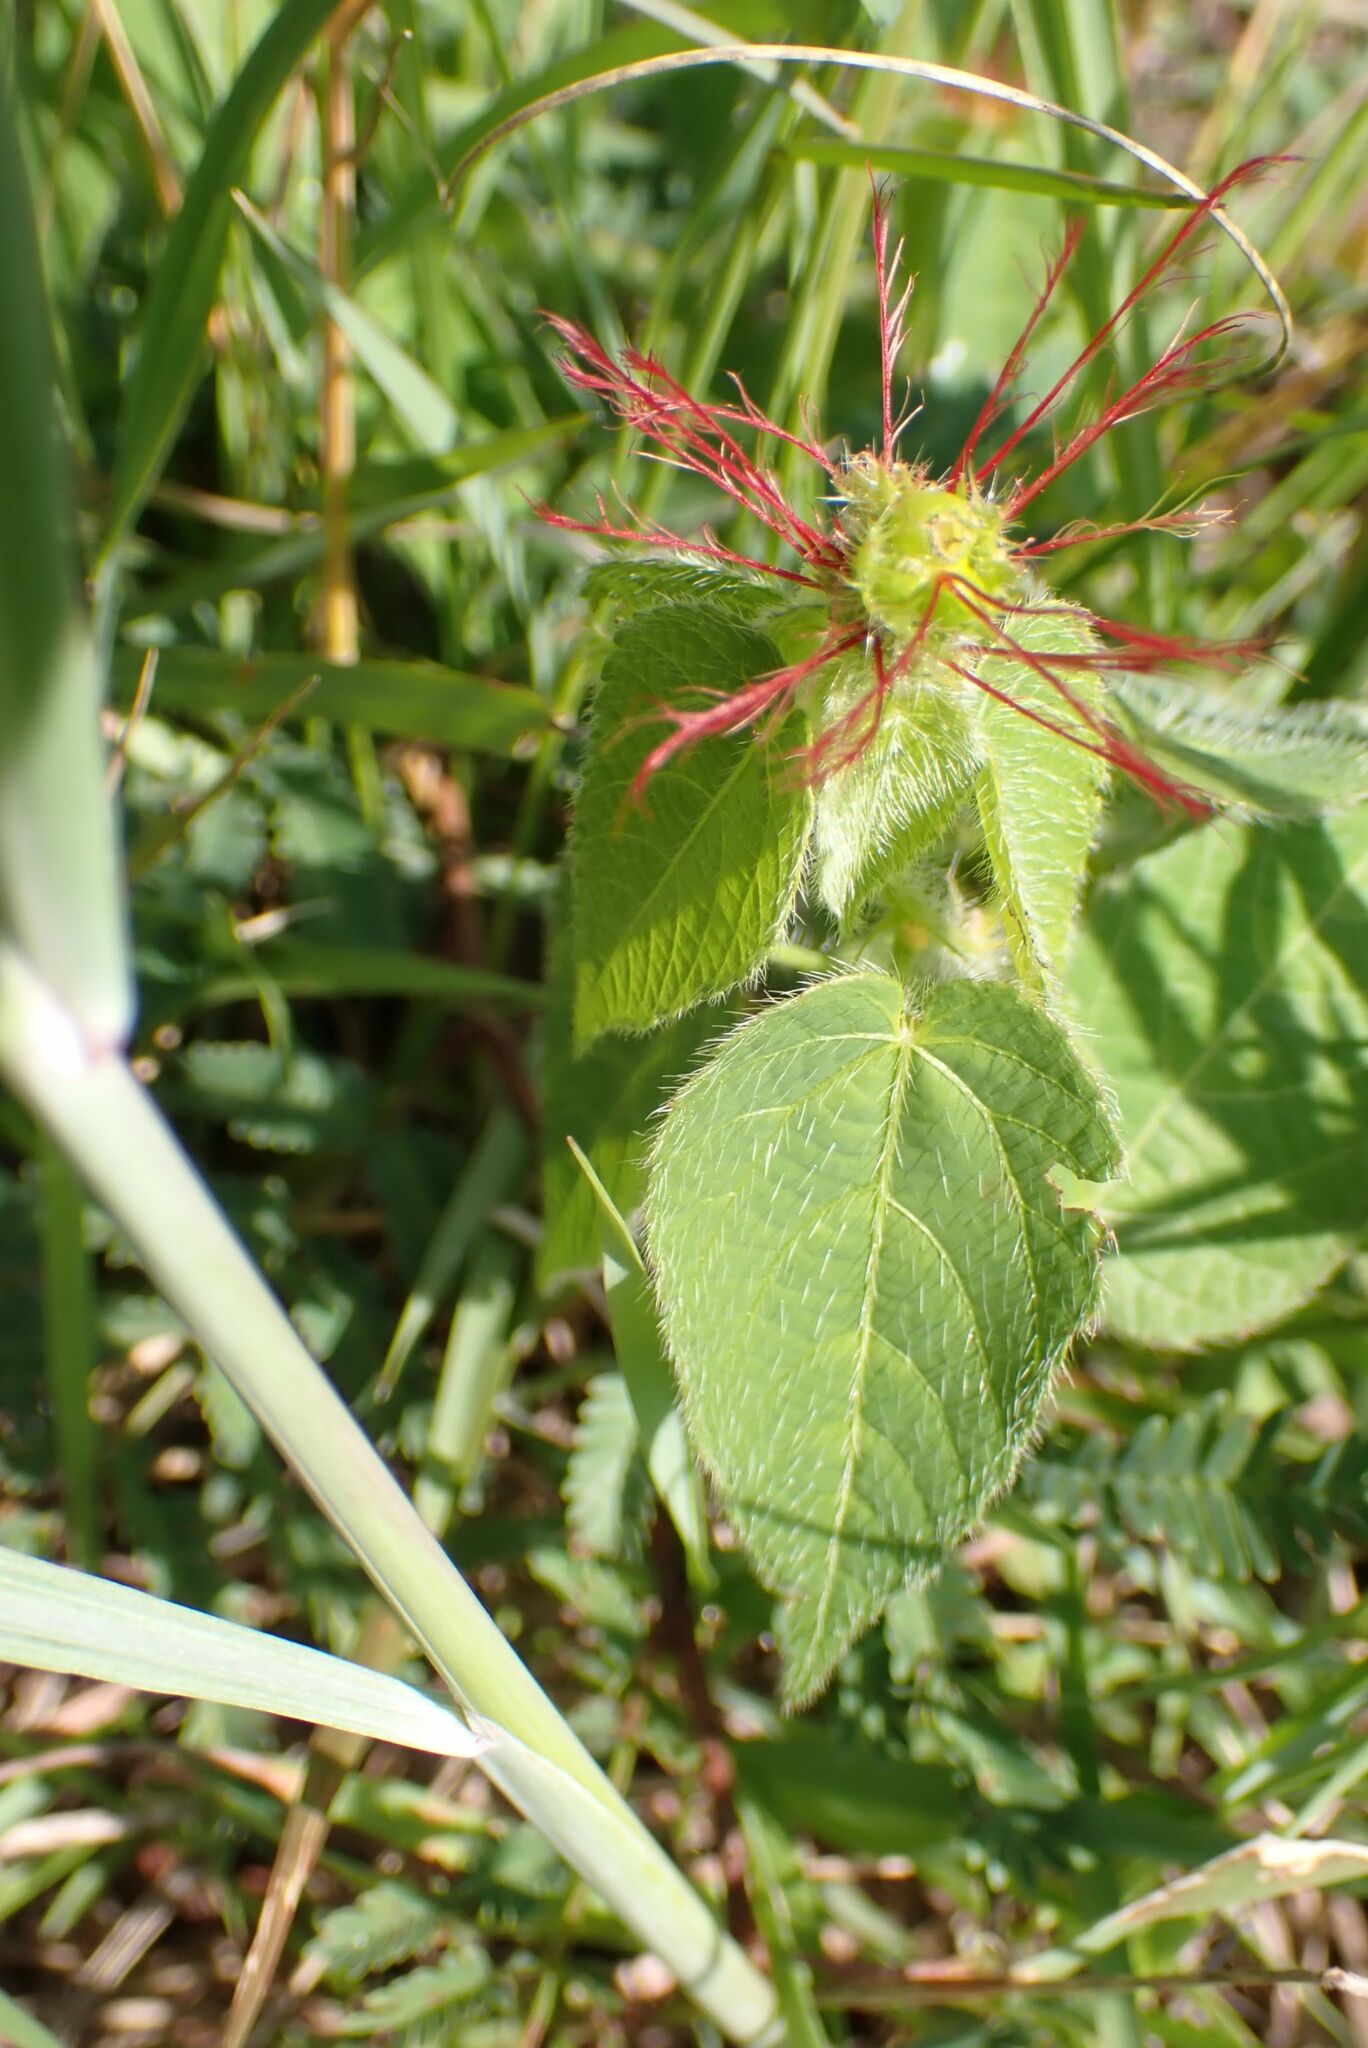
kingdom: Plantae
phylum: Tracheophyta
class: Magnoliopsida
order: Malpighiales
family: Euphorbiaceae
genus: Acalypha
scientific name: Acalypha petiolaris
